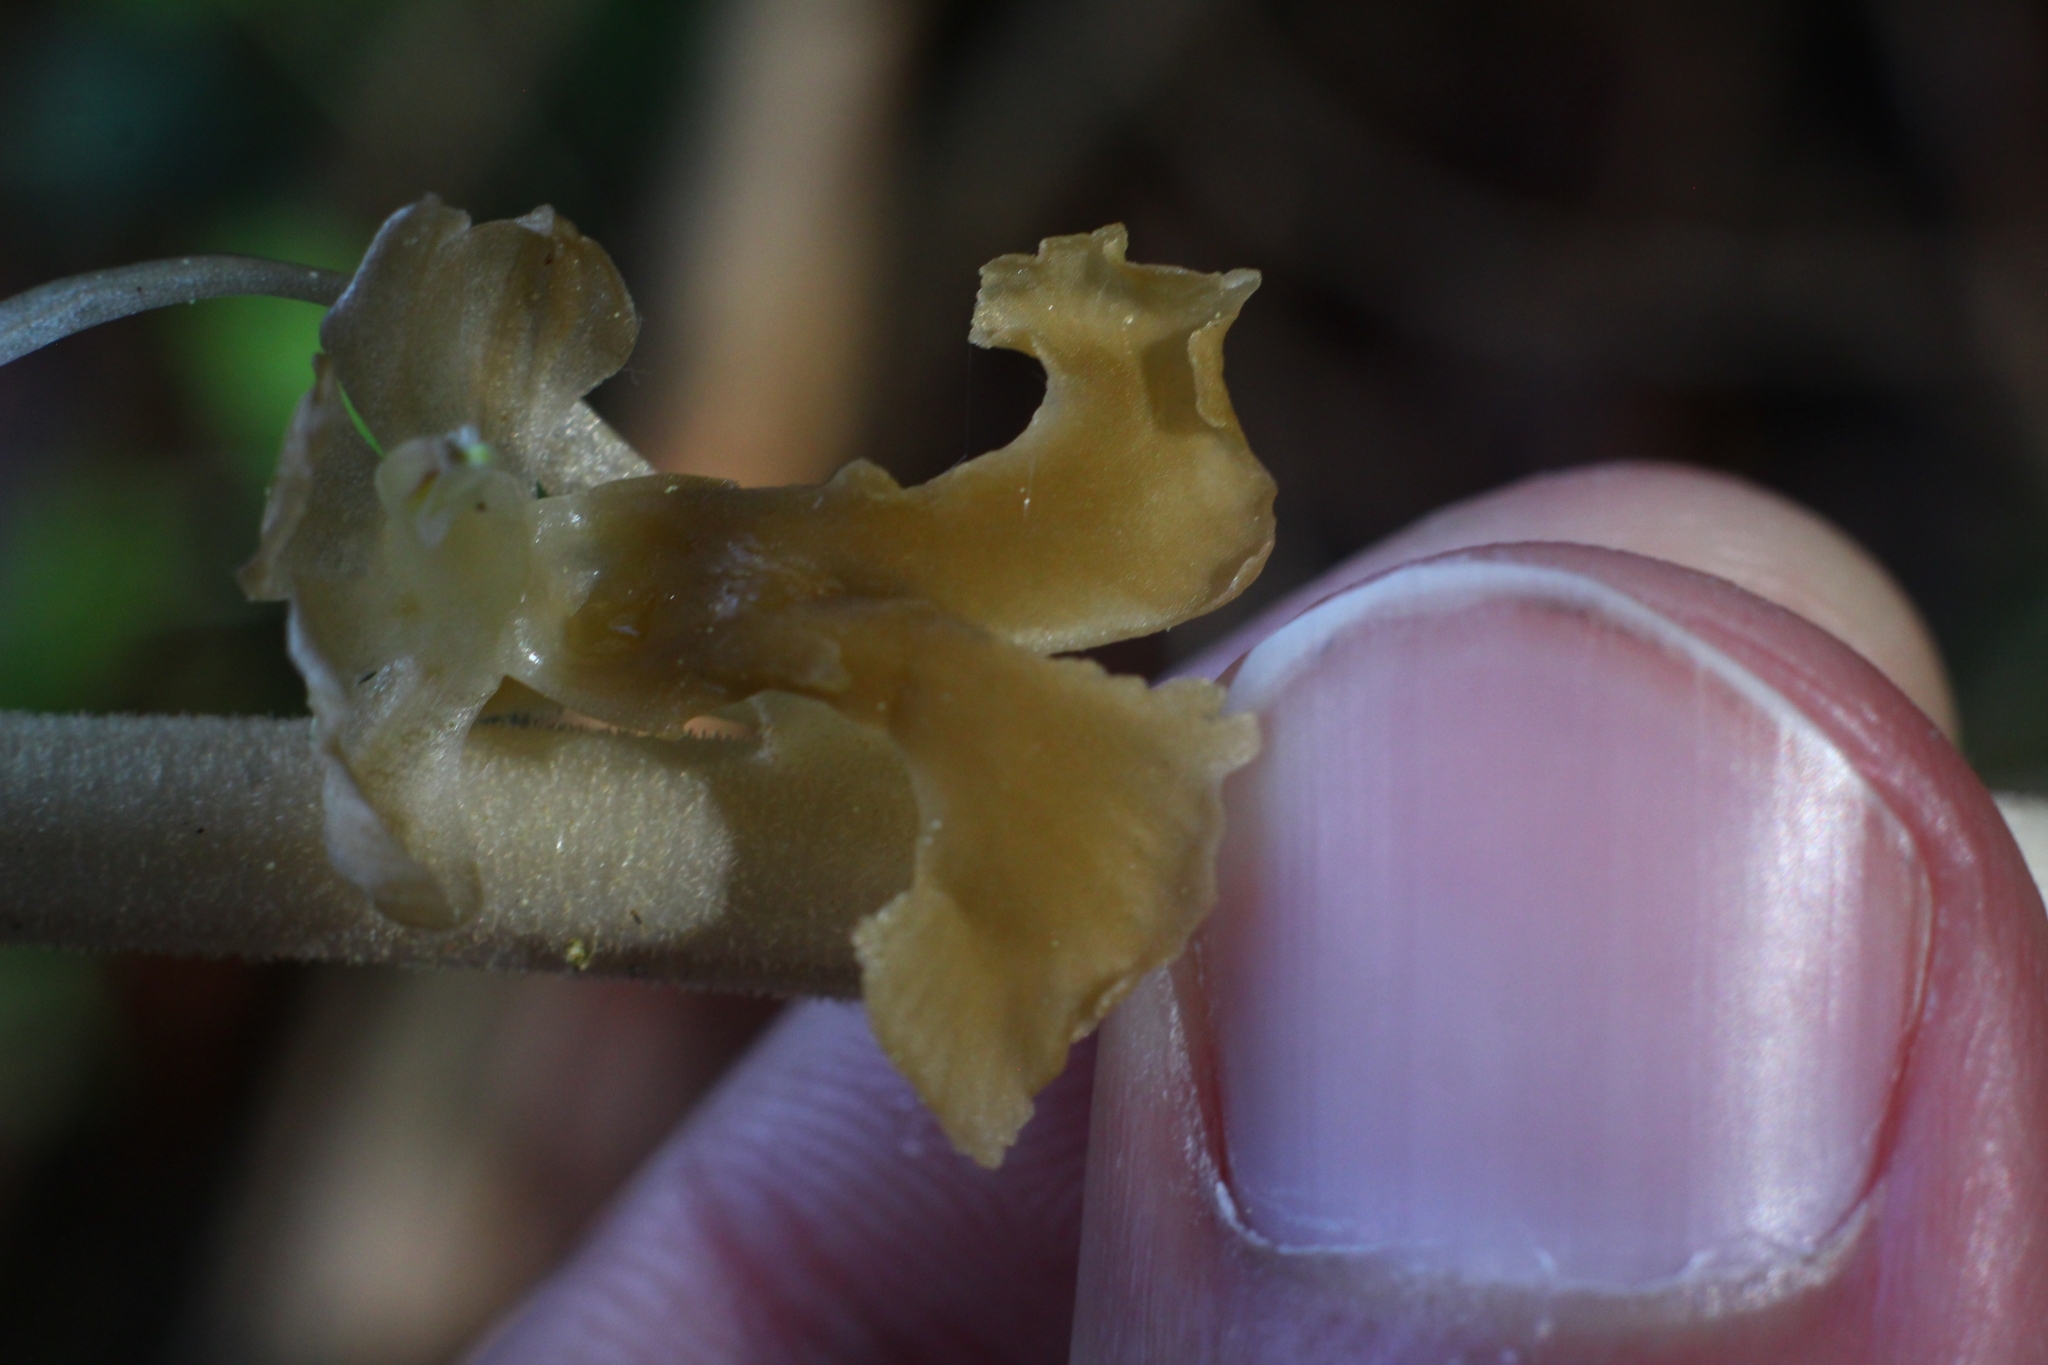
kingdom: Plantae
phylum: Tracheophyta
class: Liliopsida
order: Asparagales
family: Orchidaceae
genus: Neottia
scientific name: Neottia nidus-avis
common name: Bird's-nest orchid
